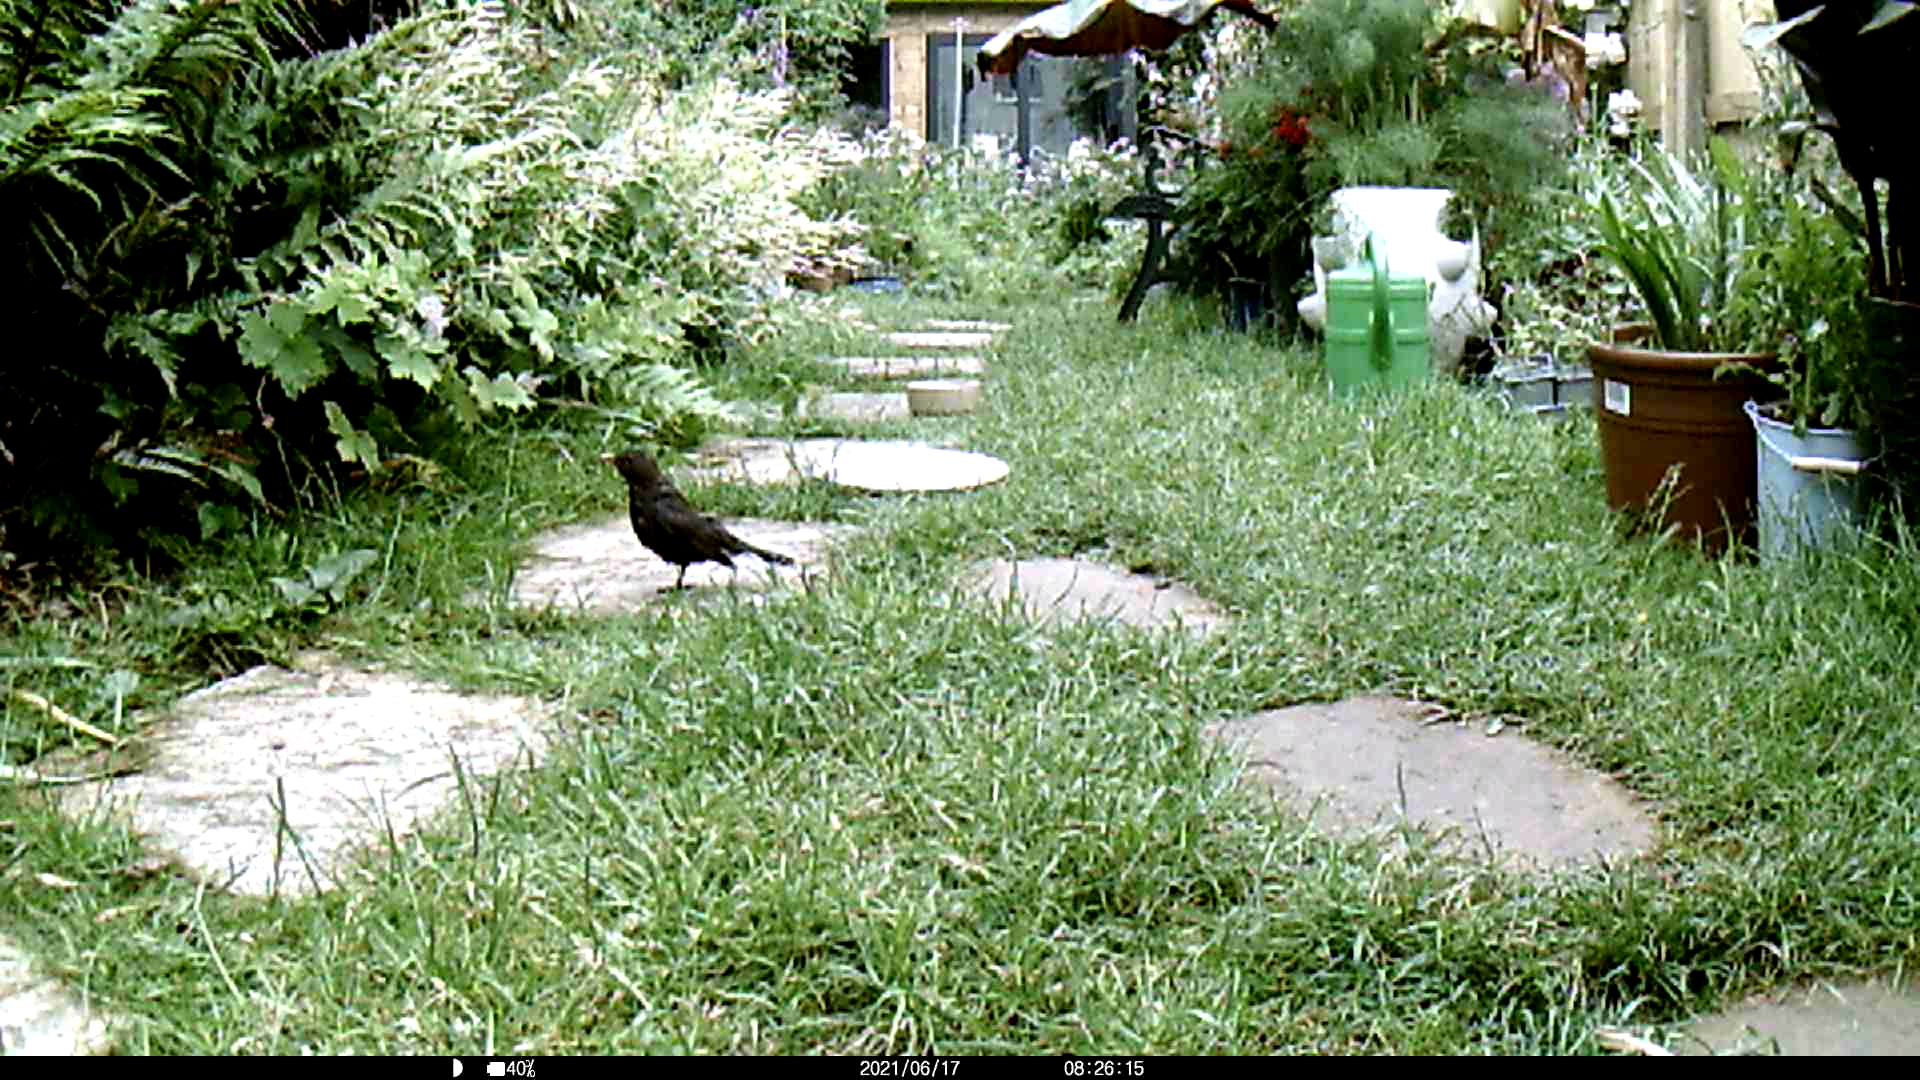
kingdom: Animalia
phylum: Chordata
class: Aves
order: Passeriformes
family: Turdidae
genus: Turdus
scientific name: Turdus merula
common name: Common blackbird
